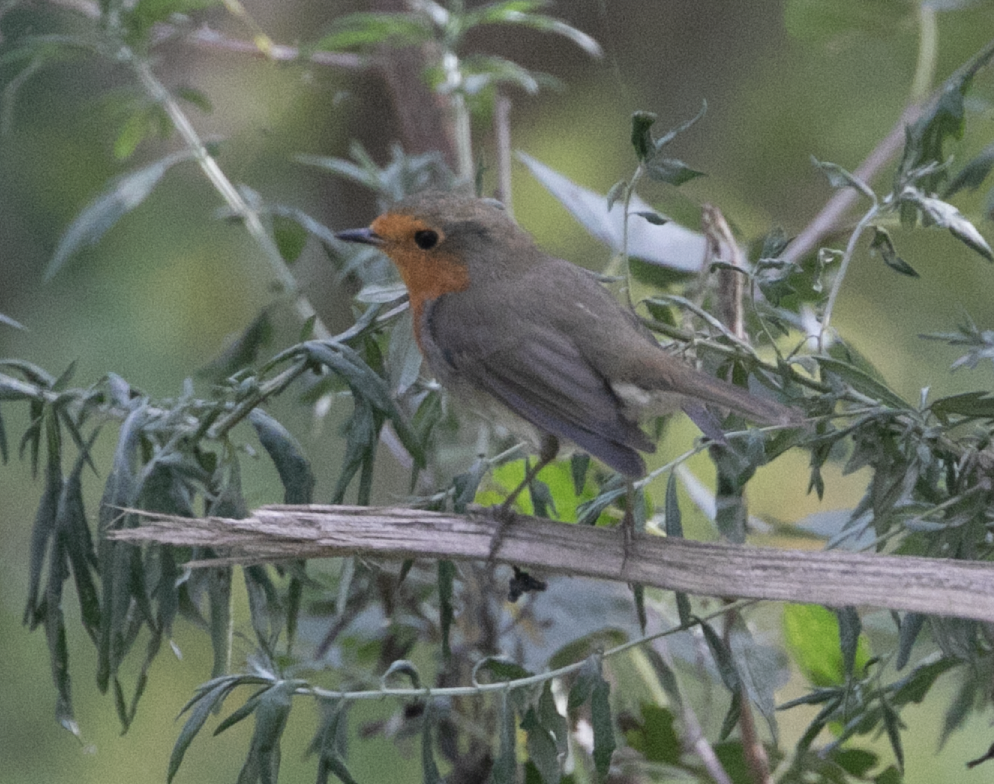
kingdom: Animalia
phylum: Chordata
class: Aves
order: Passeriformes
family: Muscicapidae
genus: Erithacus
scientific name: Erithacus rubecula
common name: European robin
